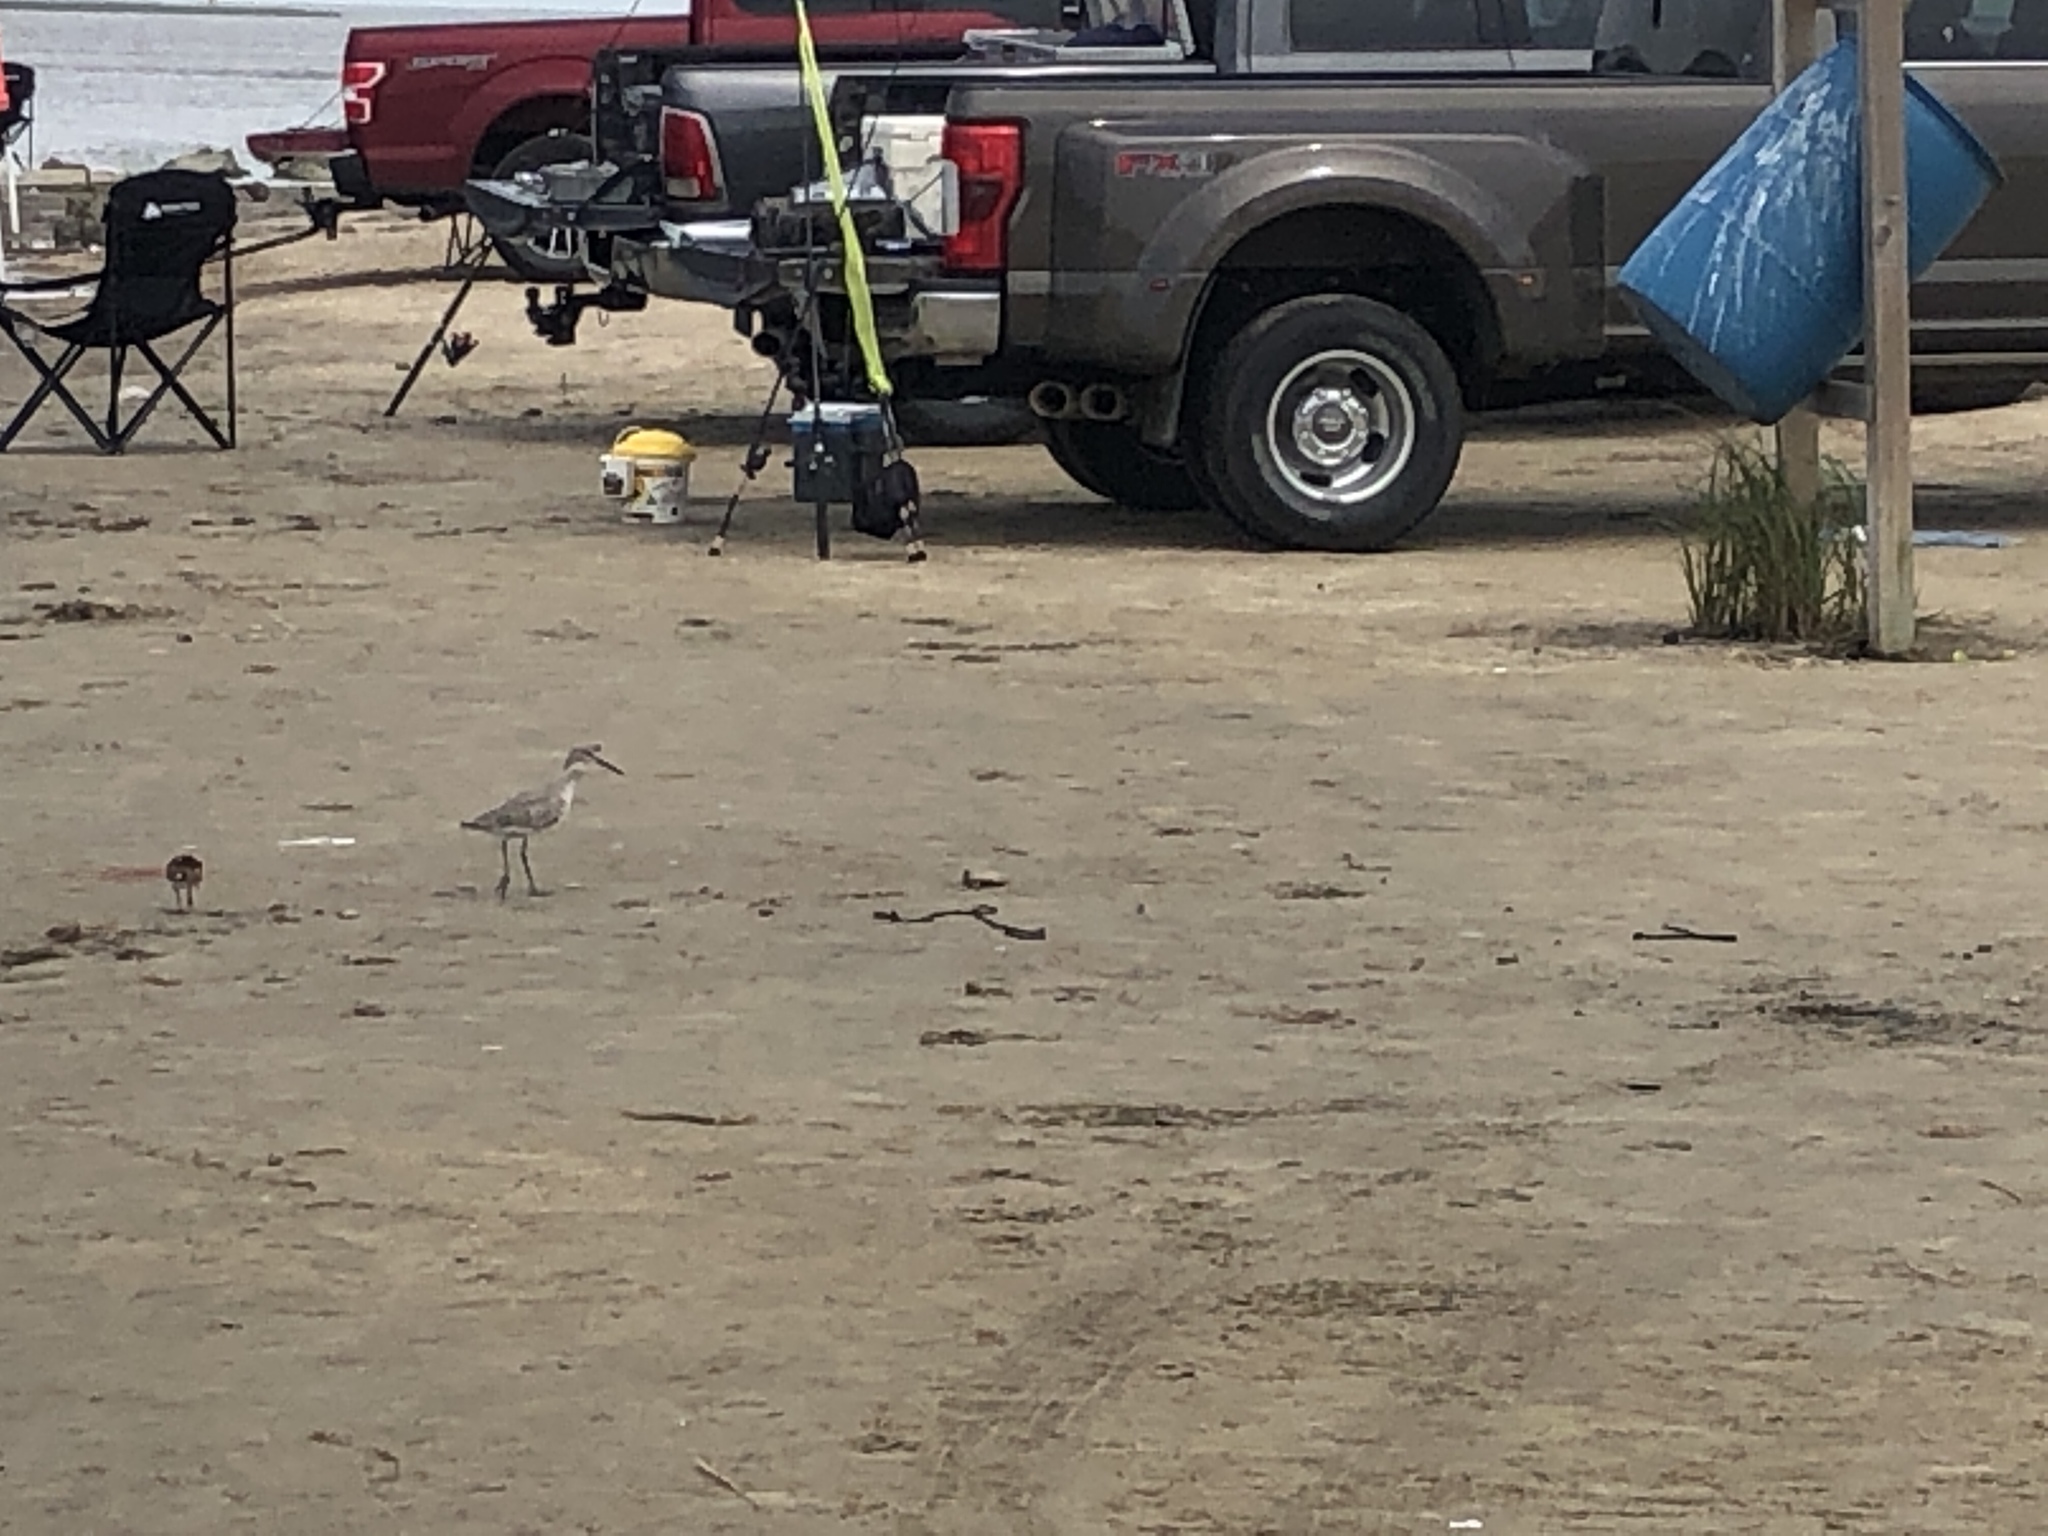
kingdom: Animalia
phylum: Chordata
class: Aves
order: Charadriiformes
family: Scolopacidae
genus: Tringa
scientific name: Tringa semipalmata
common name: Willet
